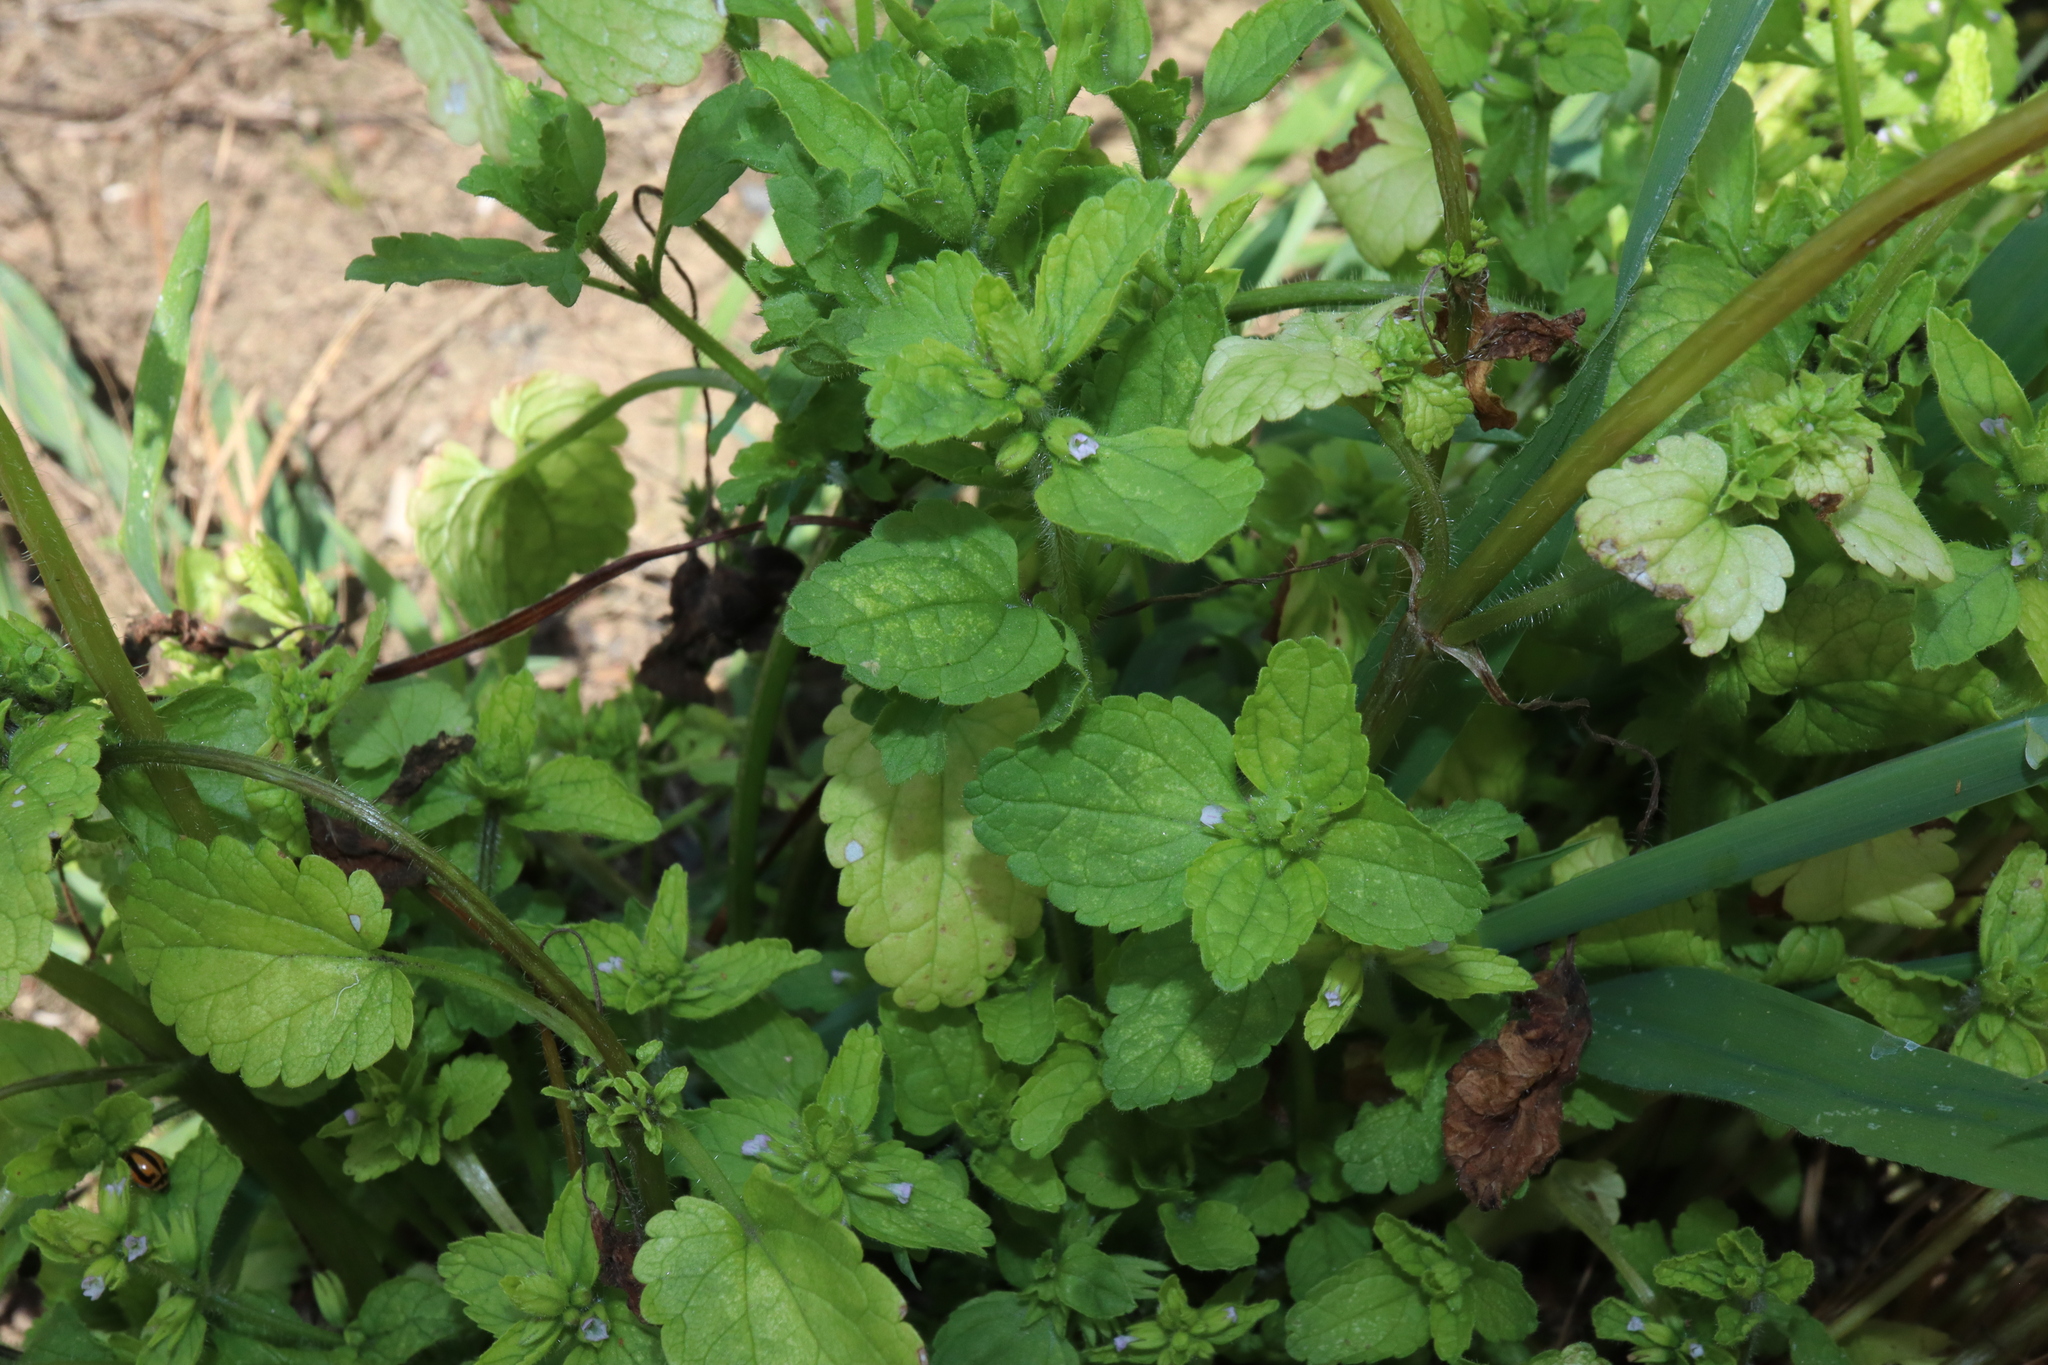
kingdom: Plantae
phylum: Tracheophyta
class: Magnoliopsida
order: Lamiales
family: Lamiaceae
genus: Stachys
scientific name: Stachys arvensis
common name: Field woundwort
